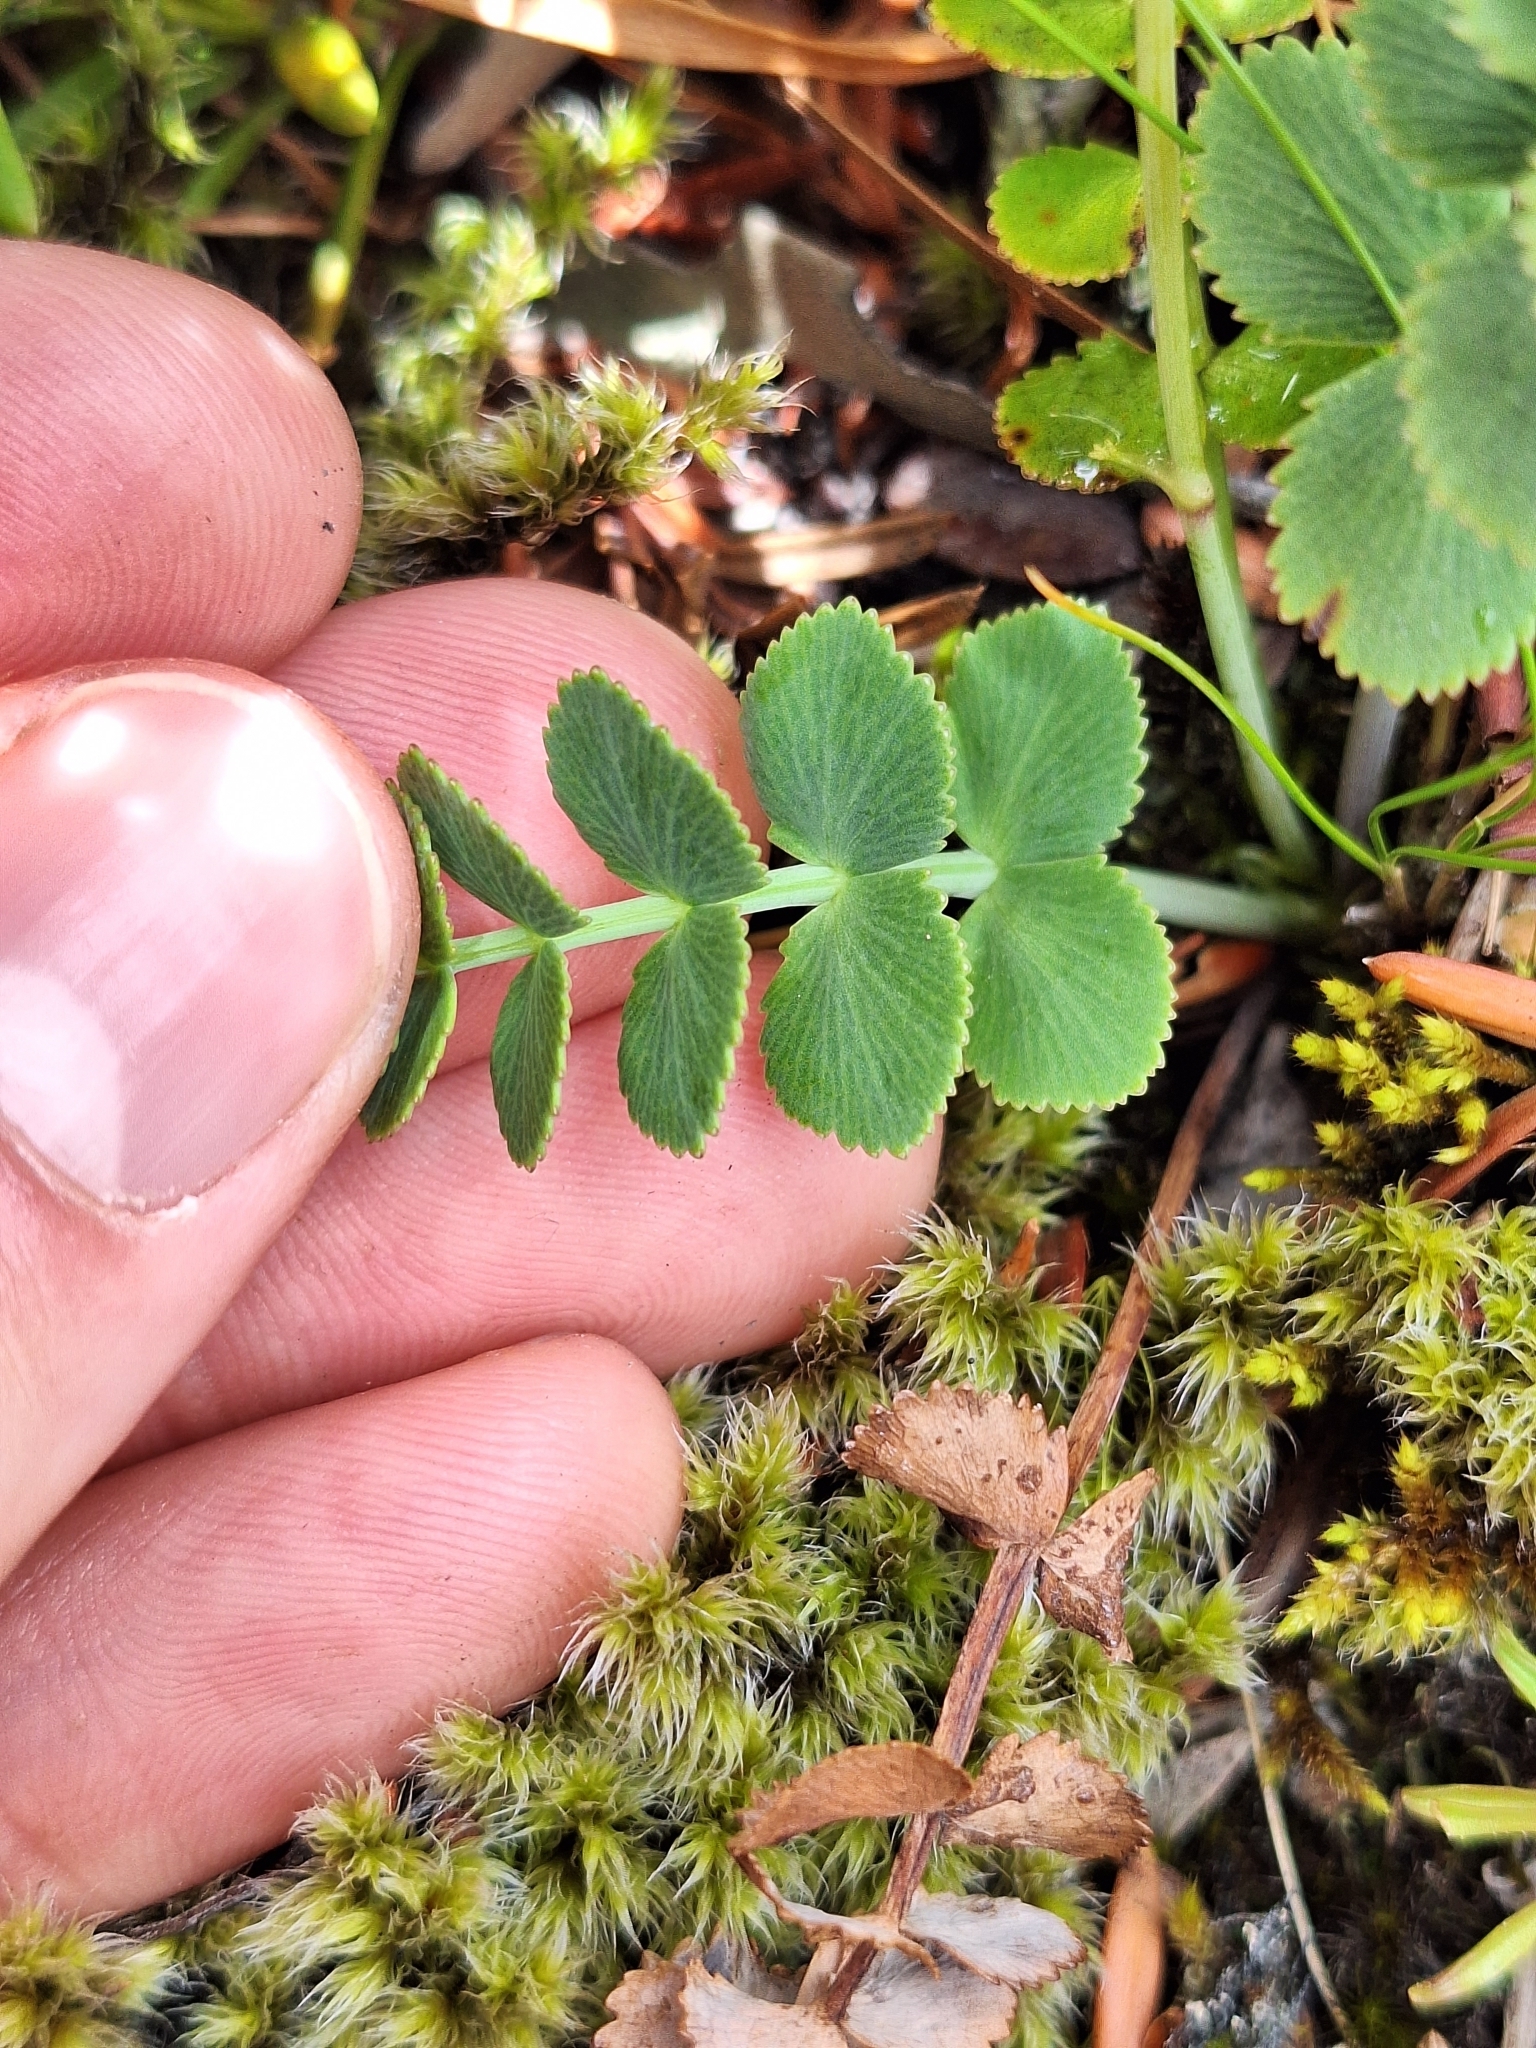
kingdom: Plantae
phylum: Tracheophyta
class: Magnoliopsida
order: Apiales
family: Apiaceae
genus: Gingidia
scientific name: Gingidia montana
